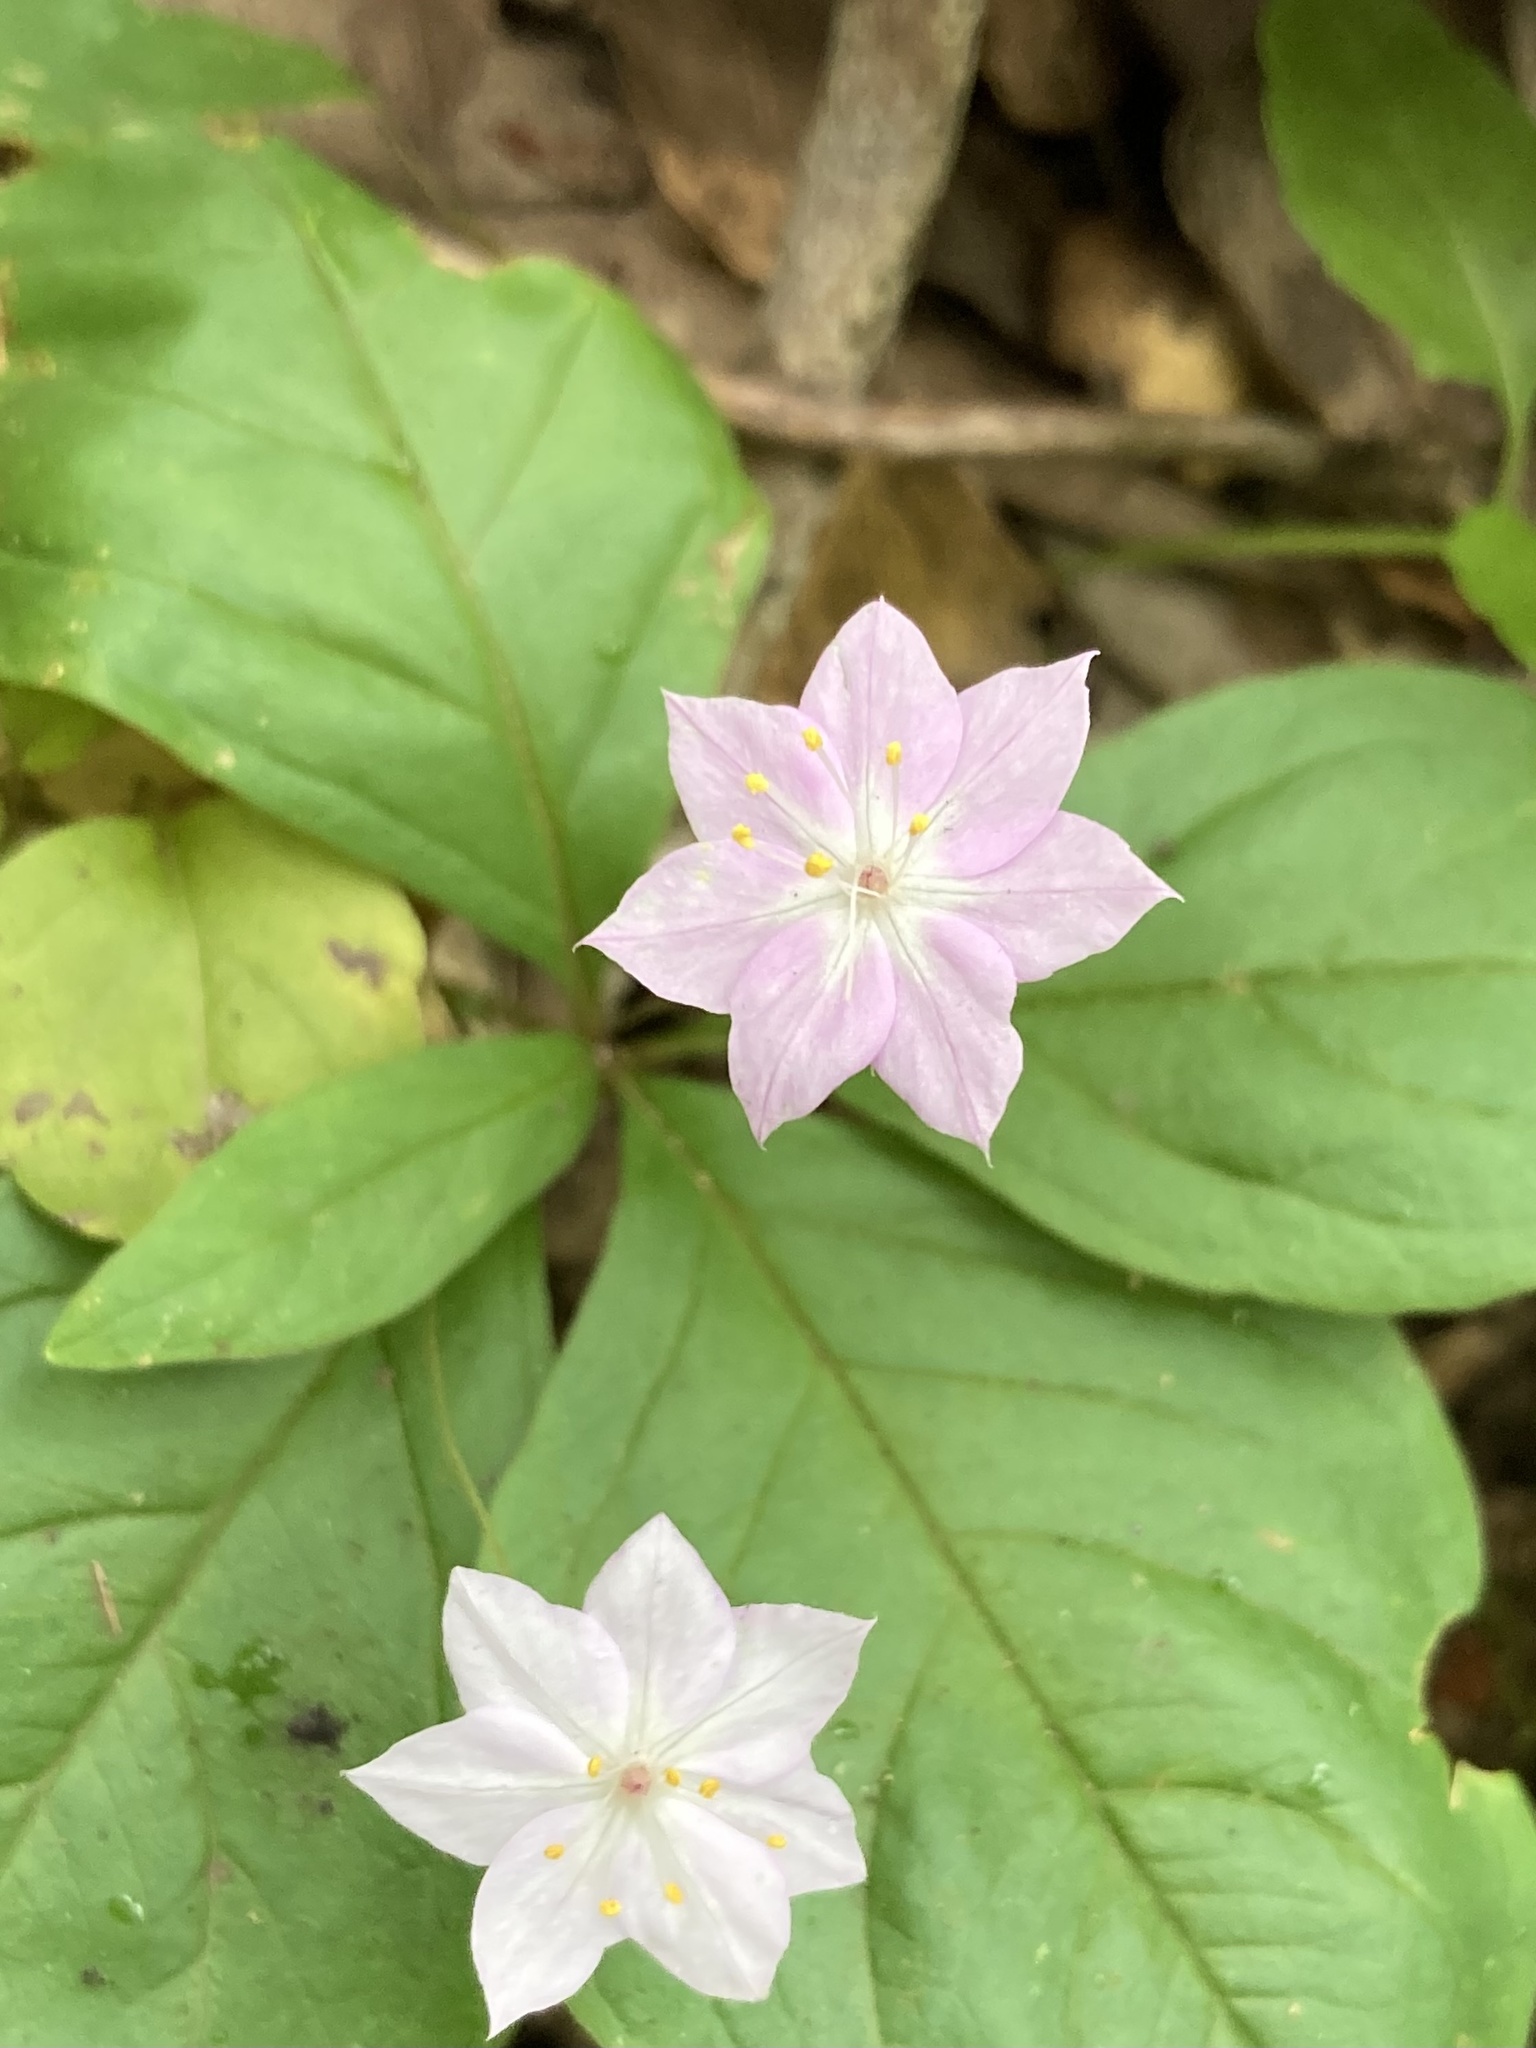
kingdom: Plantae
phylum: Tracheophyta
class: Magnoliopsida
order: Ericales
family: Primulaceae
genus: Lysimachia
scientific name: Lysimachia latifolia
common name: Pacific starflower
